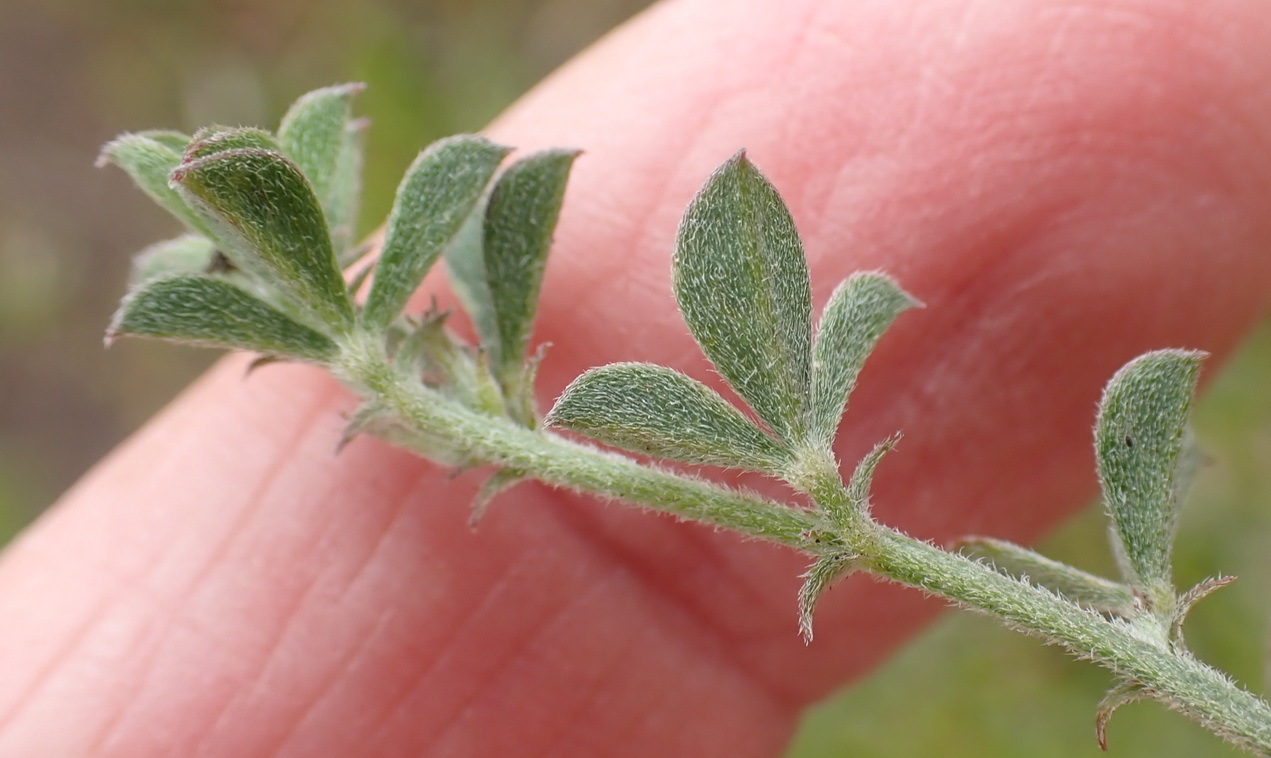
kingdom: Plantae
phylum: Tracheophyta
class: Magnoliopsida
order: Fabales
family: Fabaceae
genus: Indigofera
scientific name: Indigofera priorii
